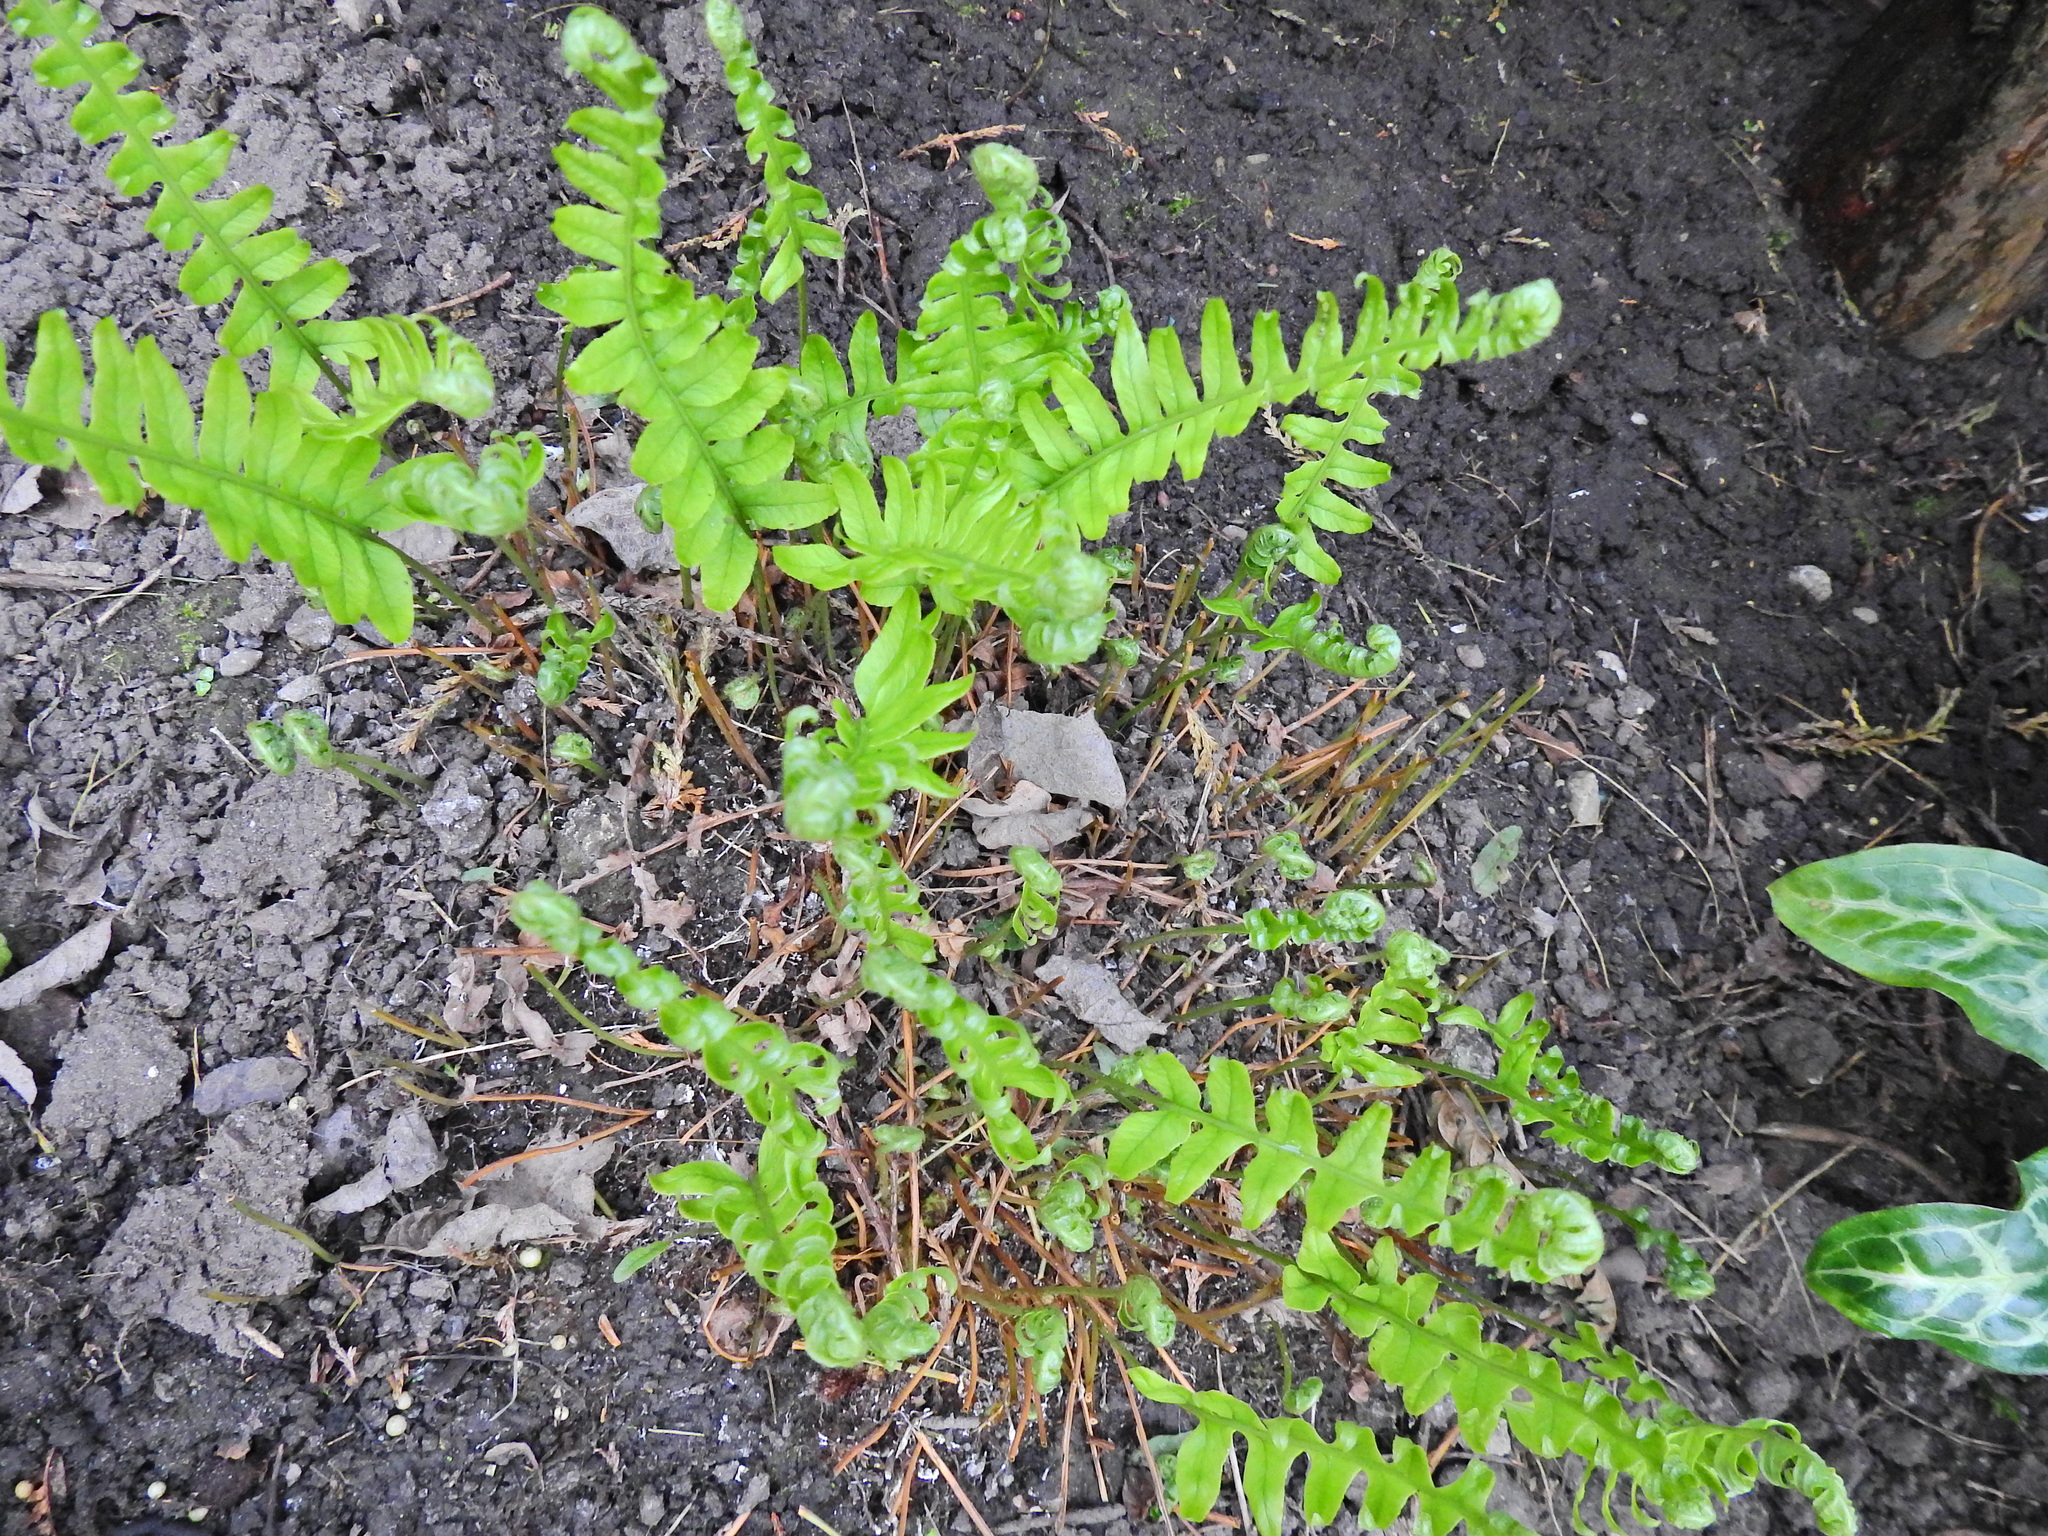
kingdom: Plantae
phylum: Tracheophyta
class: Polypodiopsida
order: Polypodiales
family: Blechnaceae
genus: Struthiopteris
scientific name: Struthiopteris spicant
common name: Deer fern
